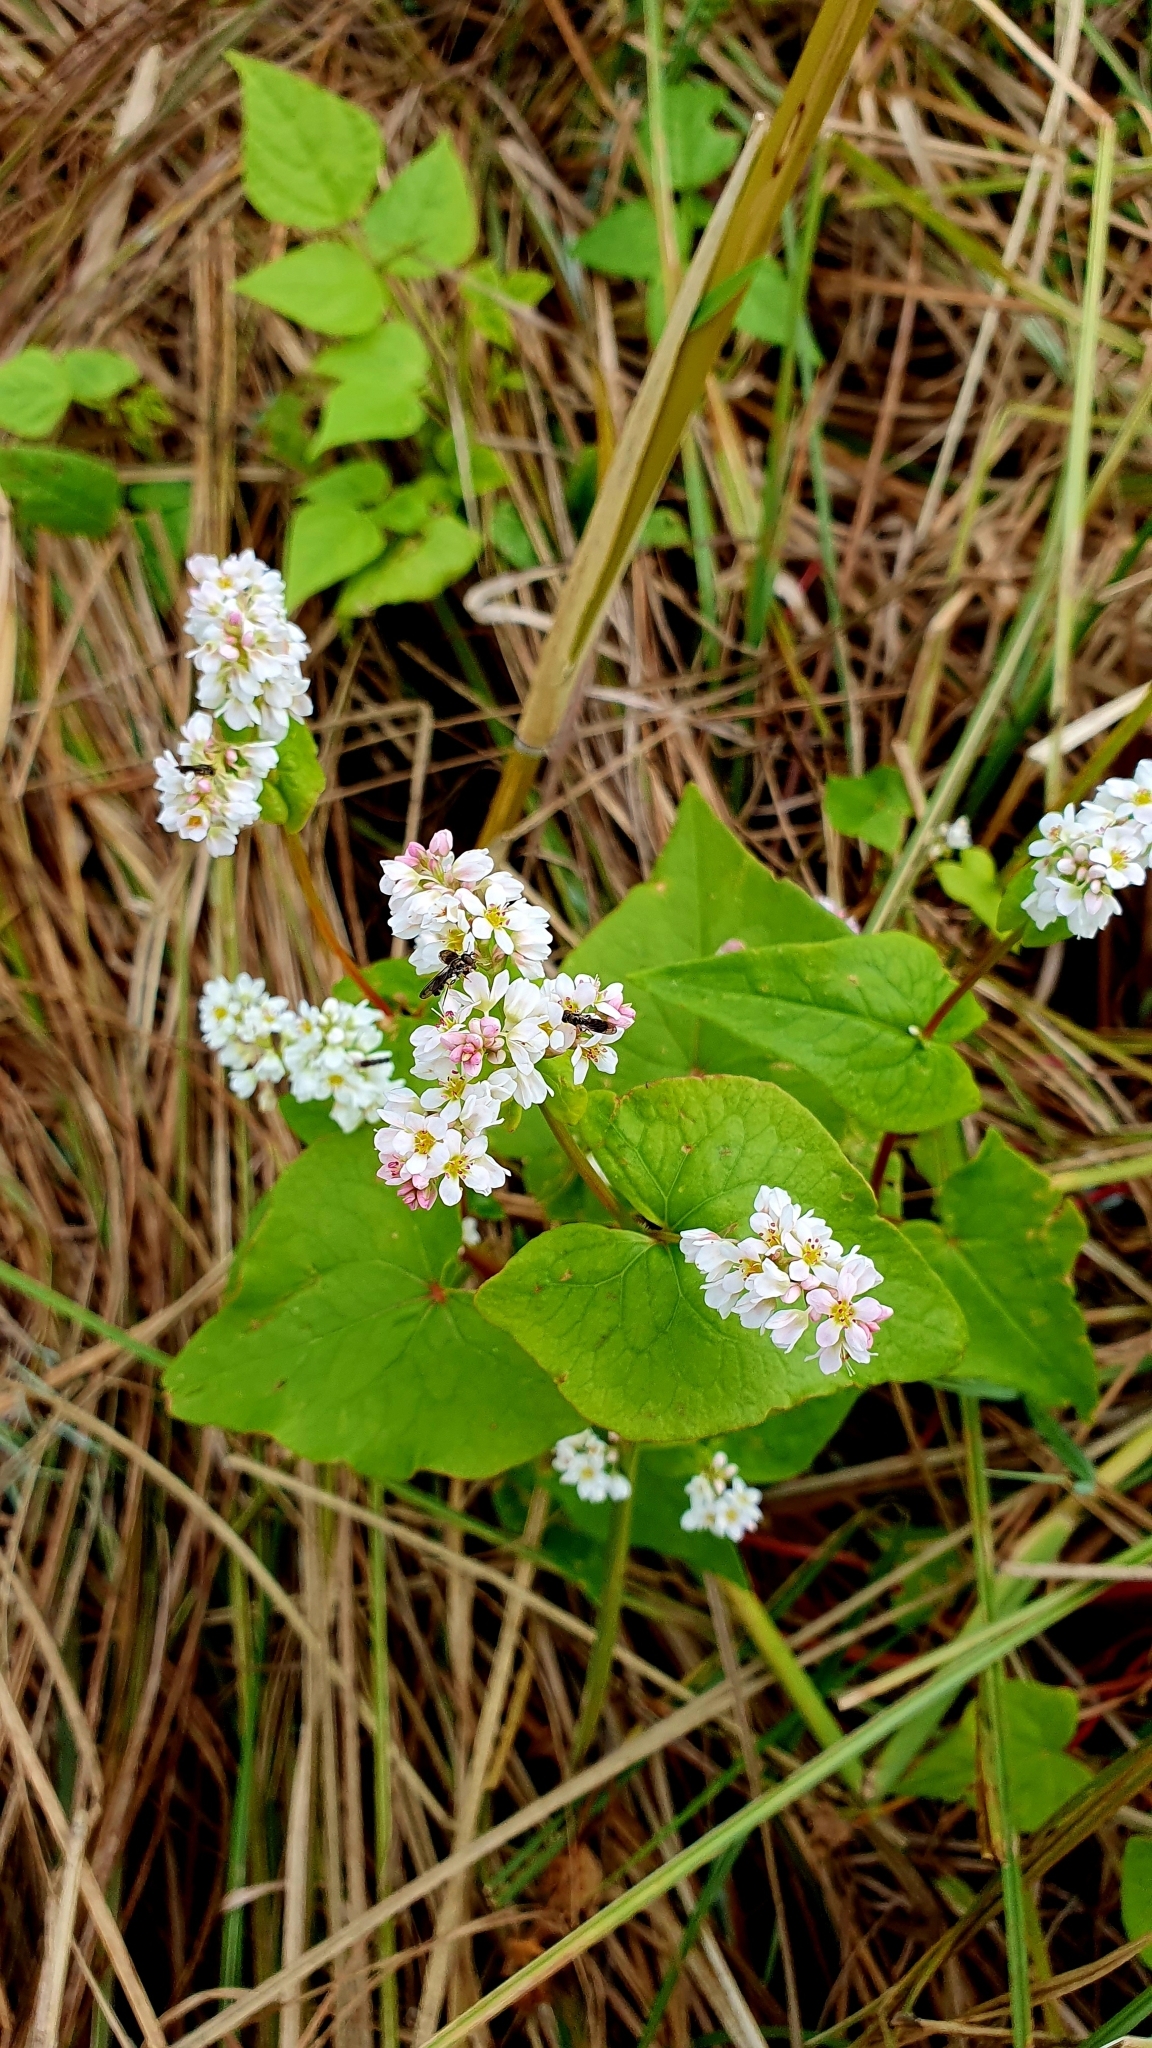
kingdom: Plantae
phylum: Tracheophyta
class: Magnoliopsida
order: Caryophyllales
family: Polygonaceae
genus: Fagopyrum
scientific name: Fagopyrum esculentum
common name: Buckwheat
